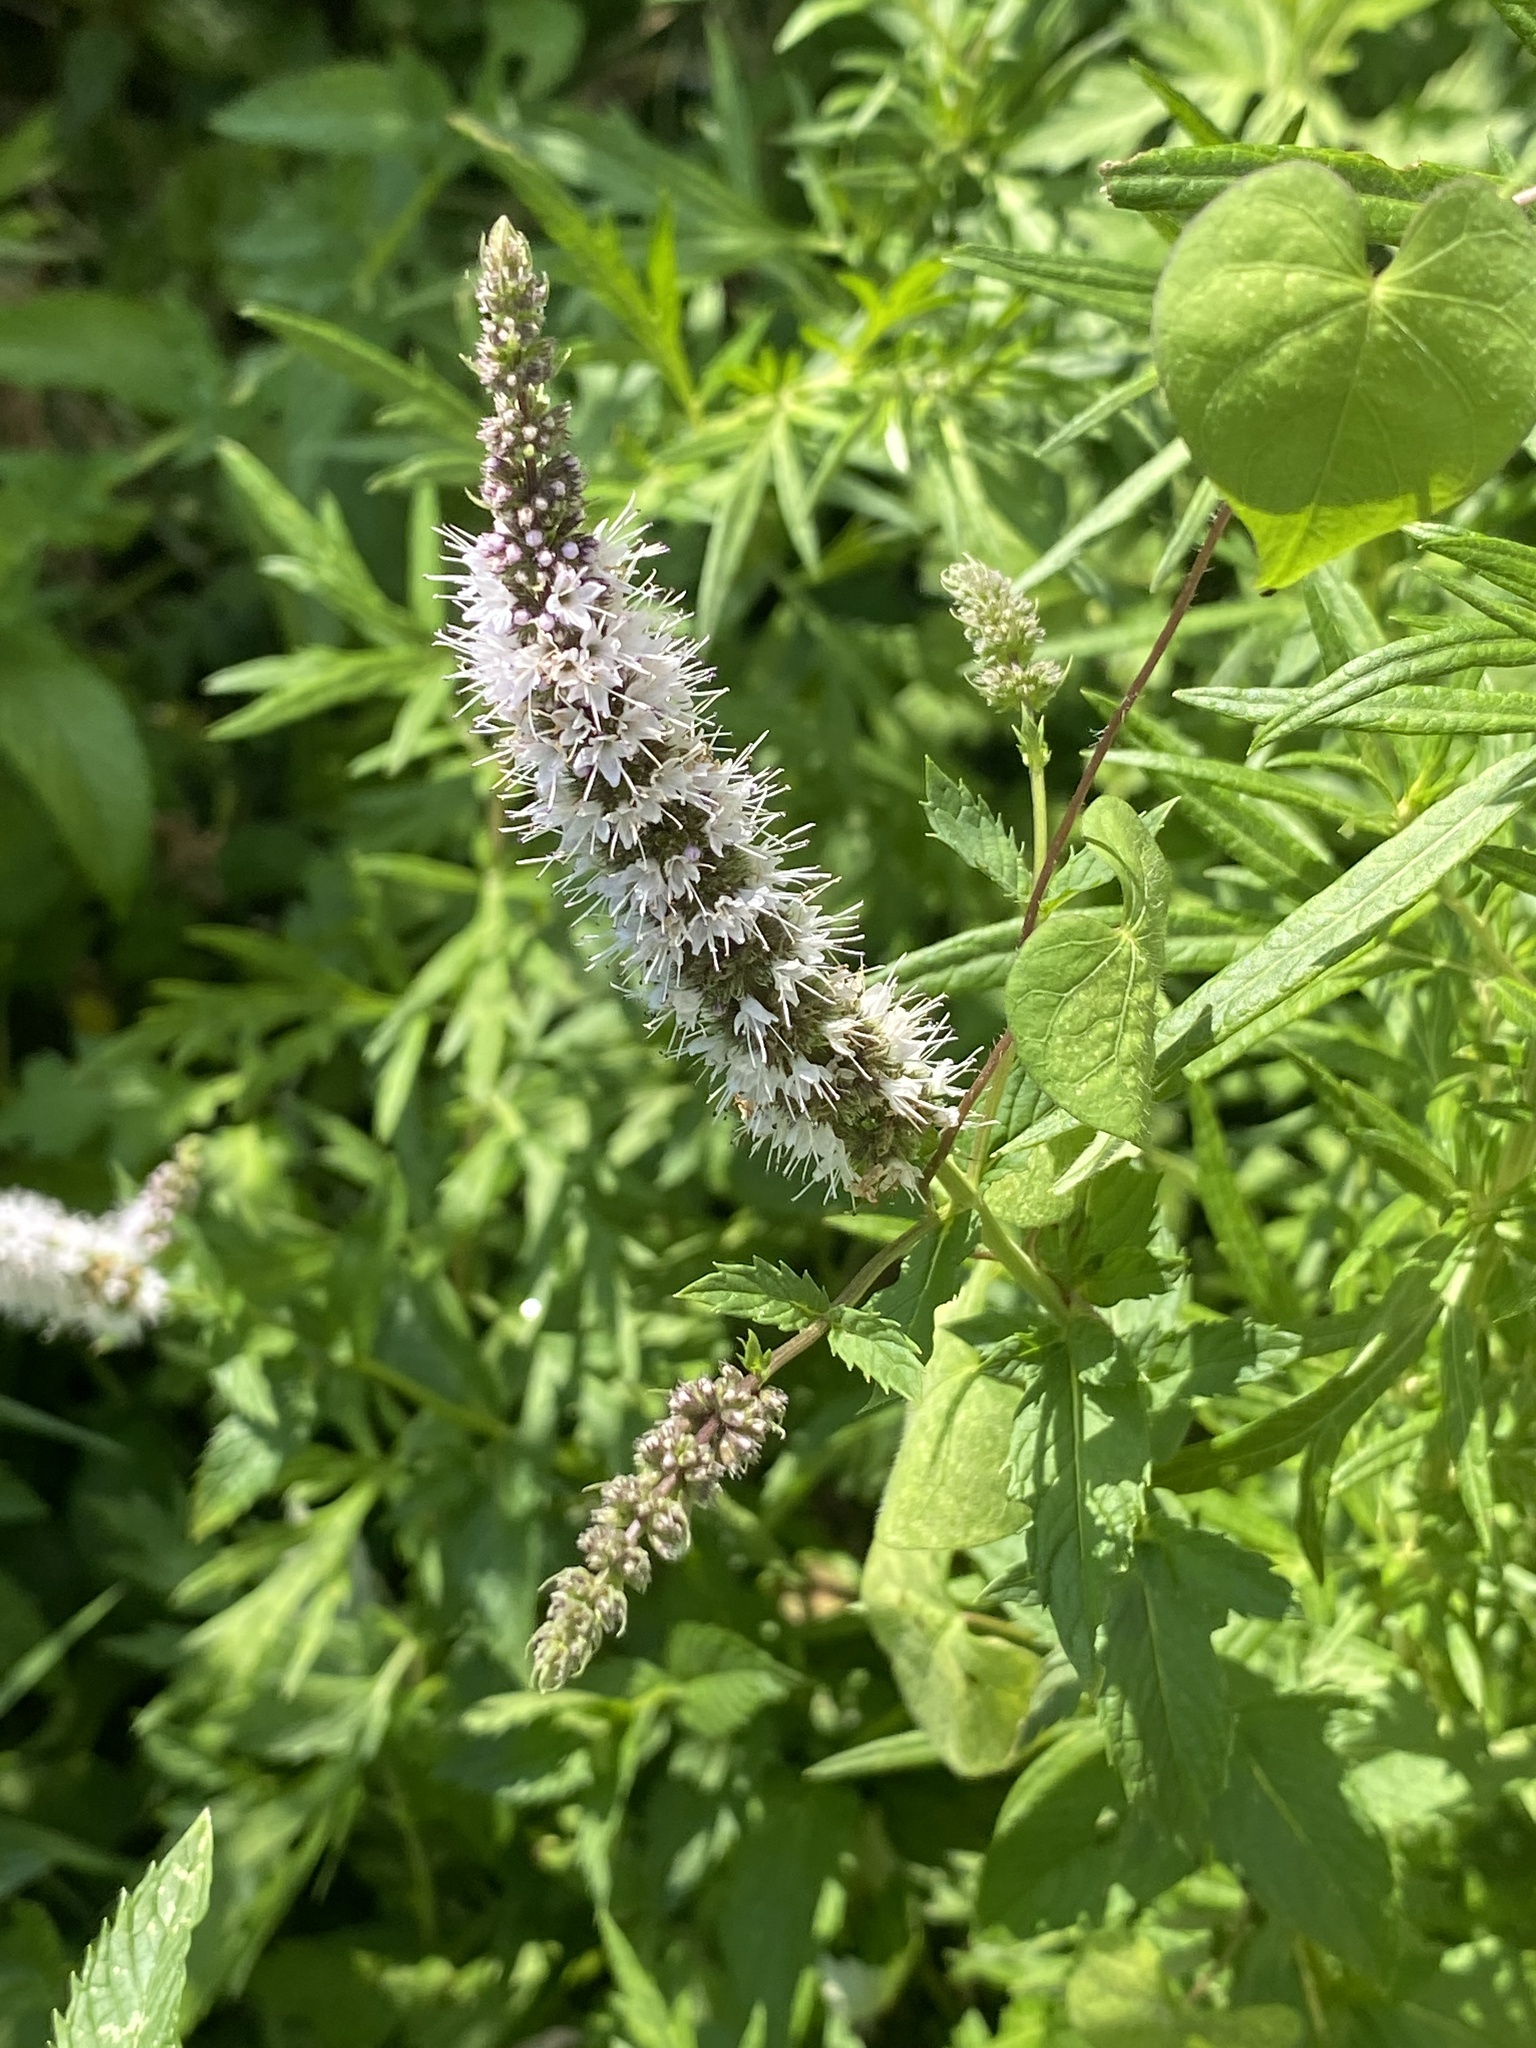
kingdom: Plantae
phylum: Tracheophyta
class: Magnoliopsida
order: Lamiales
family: Lamiaceae
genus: Mentha
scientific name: Mentha spicata
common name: Spearmint
